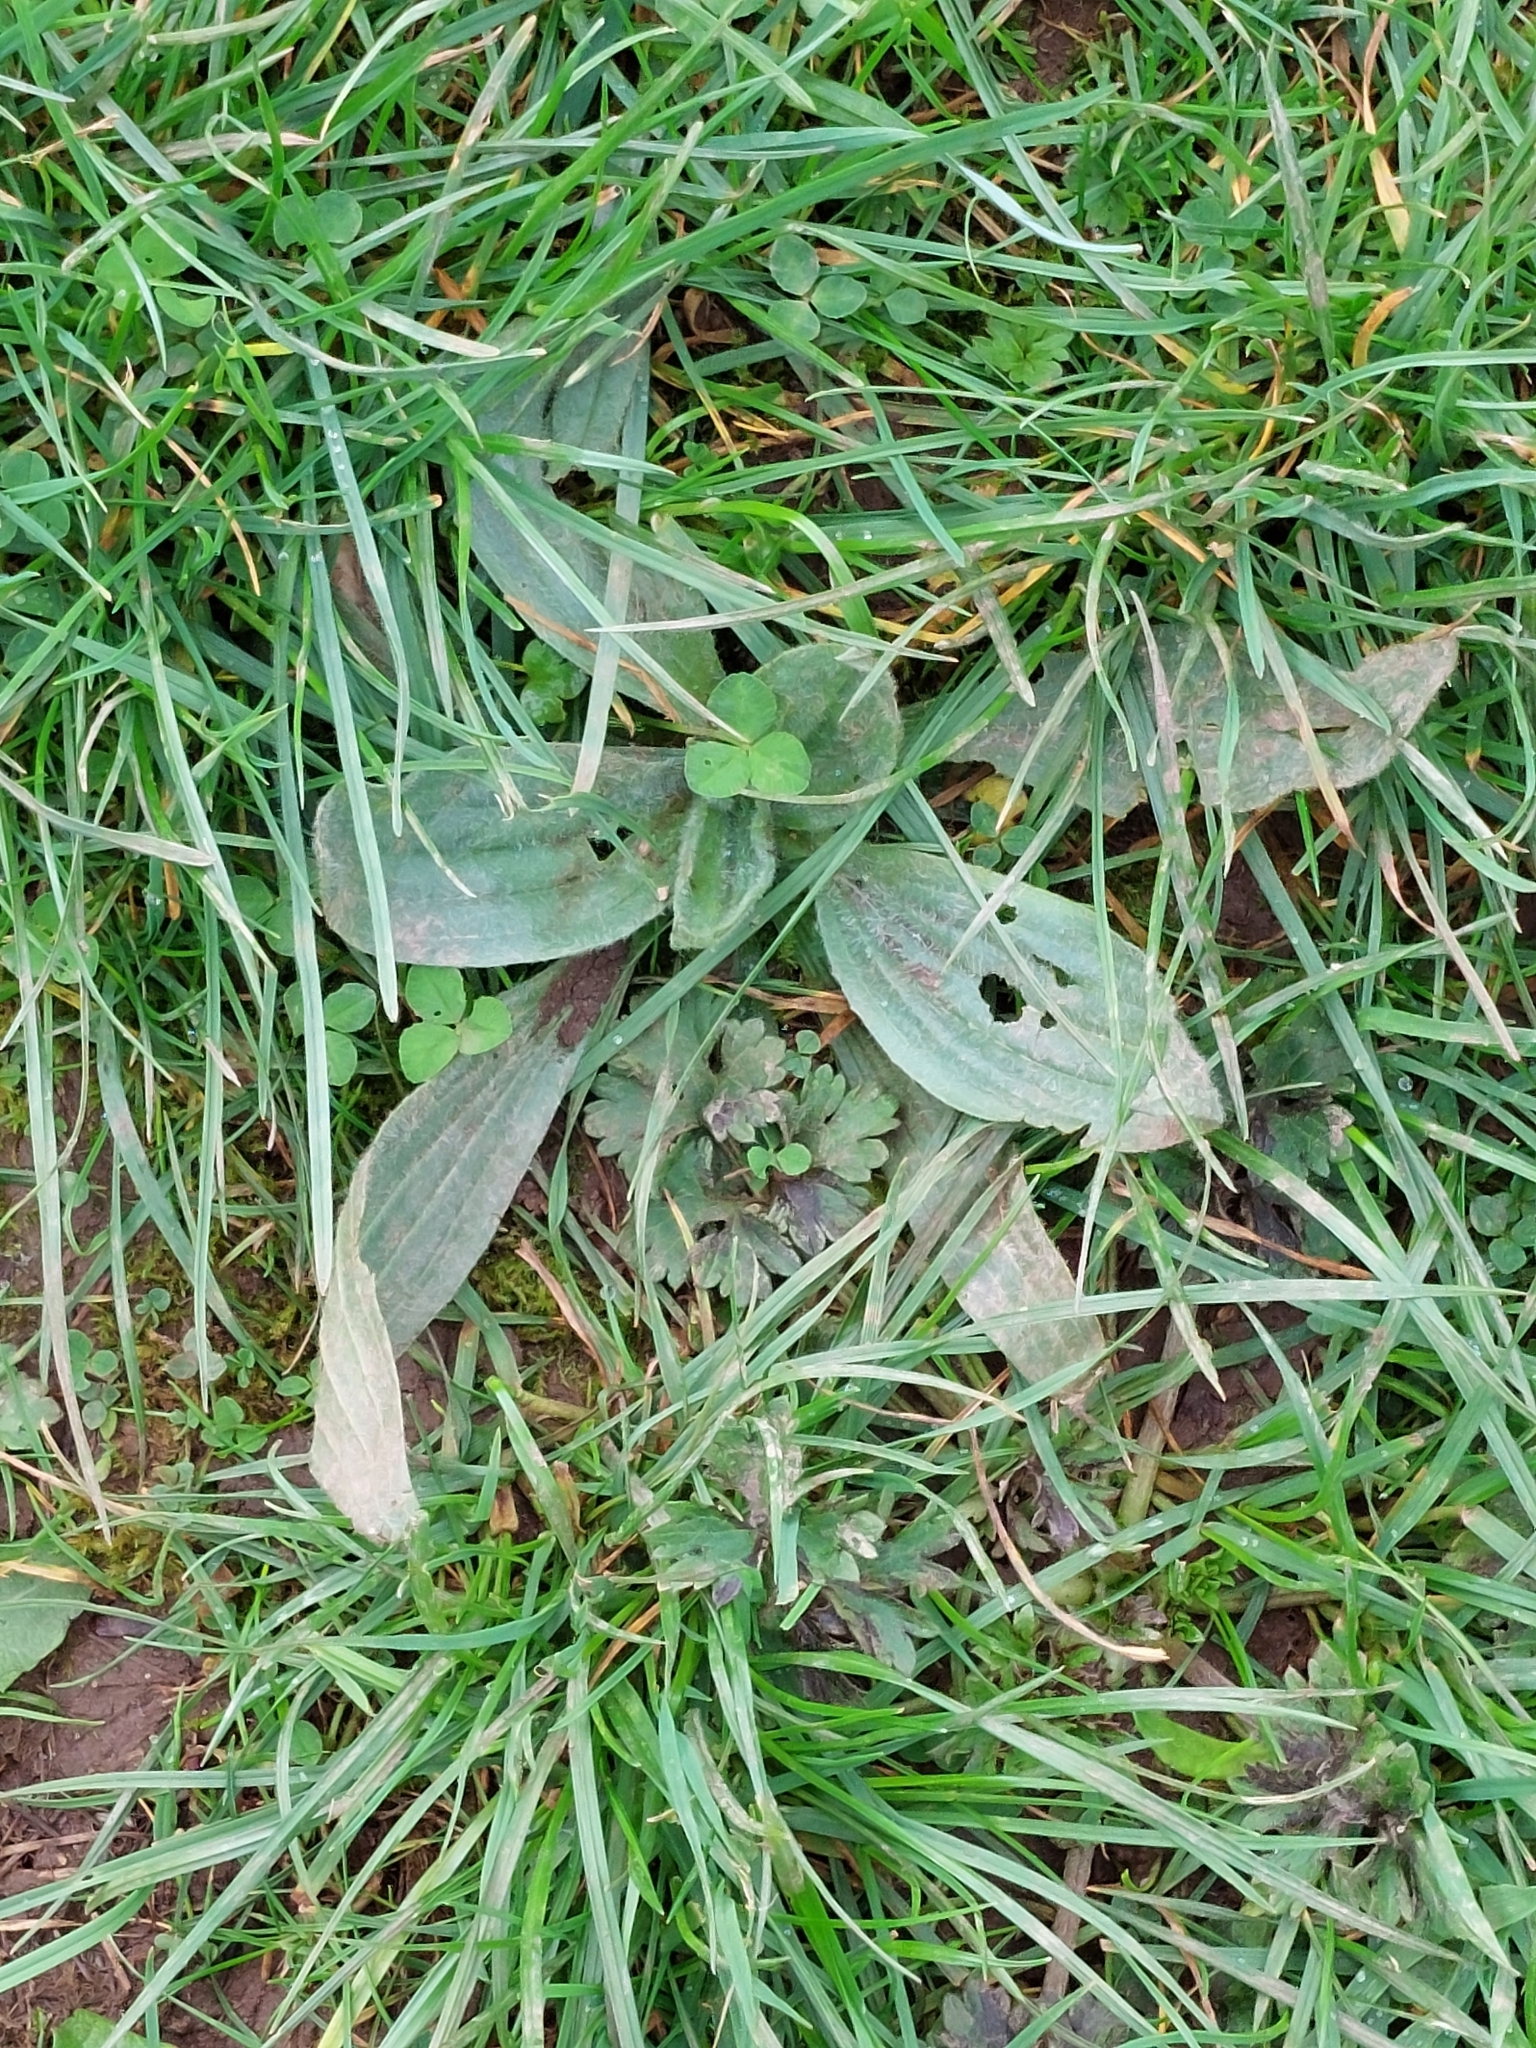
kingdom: Plantae
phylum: Tracheophyta
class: Magnoliopsida
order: Lamiales
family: Plantaginaceae
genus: Plantago
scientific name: Plantago lanceolata
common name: Ribwort plantain
